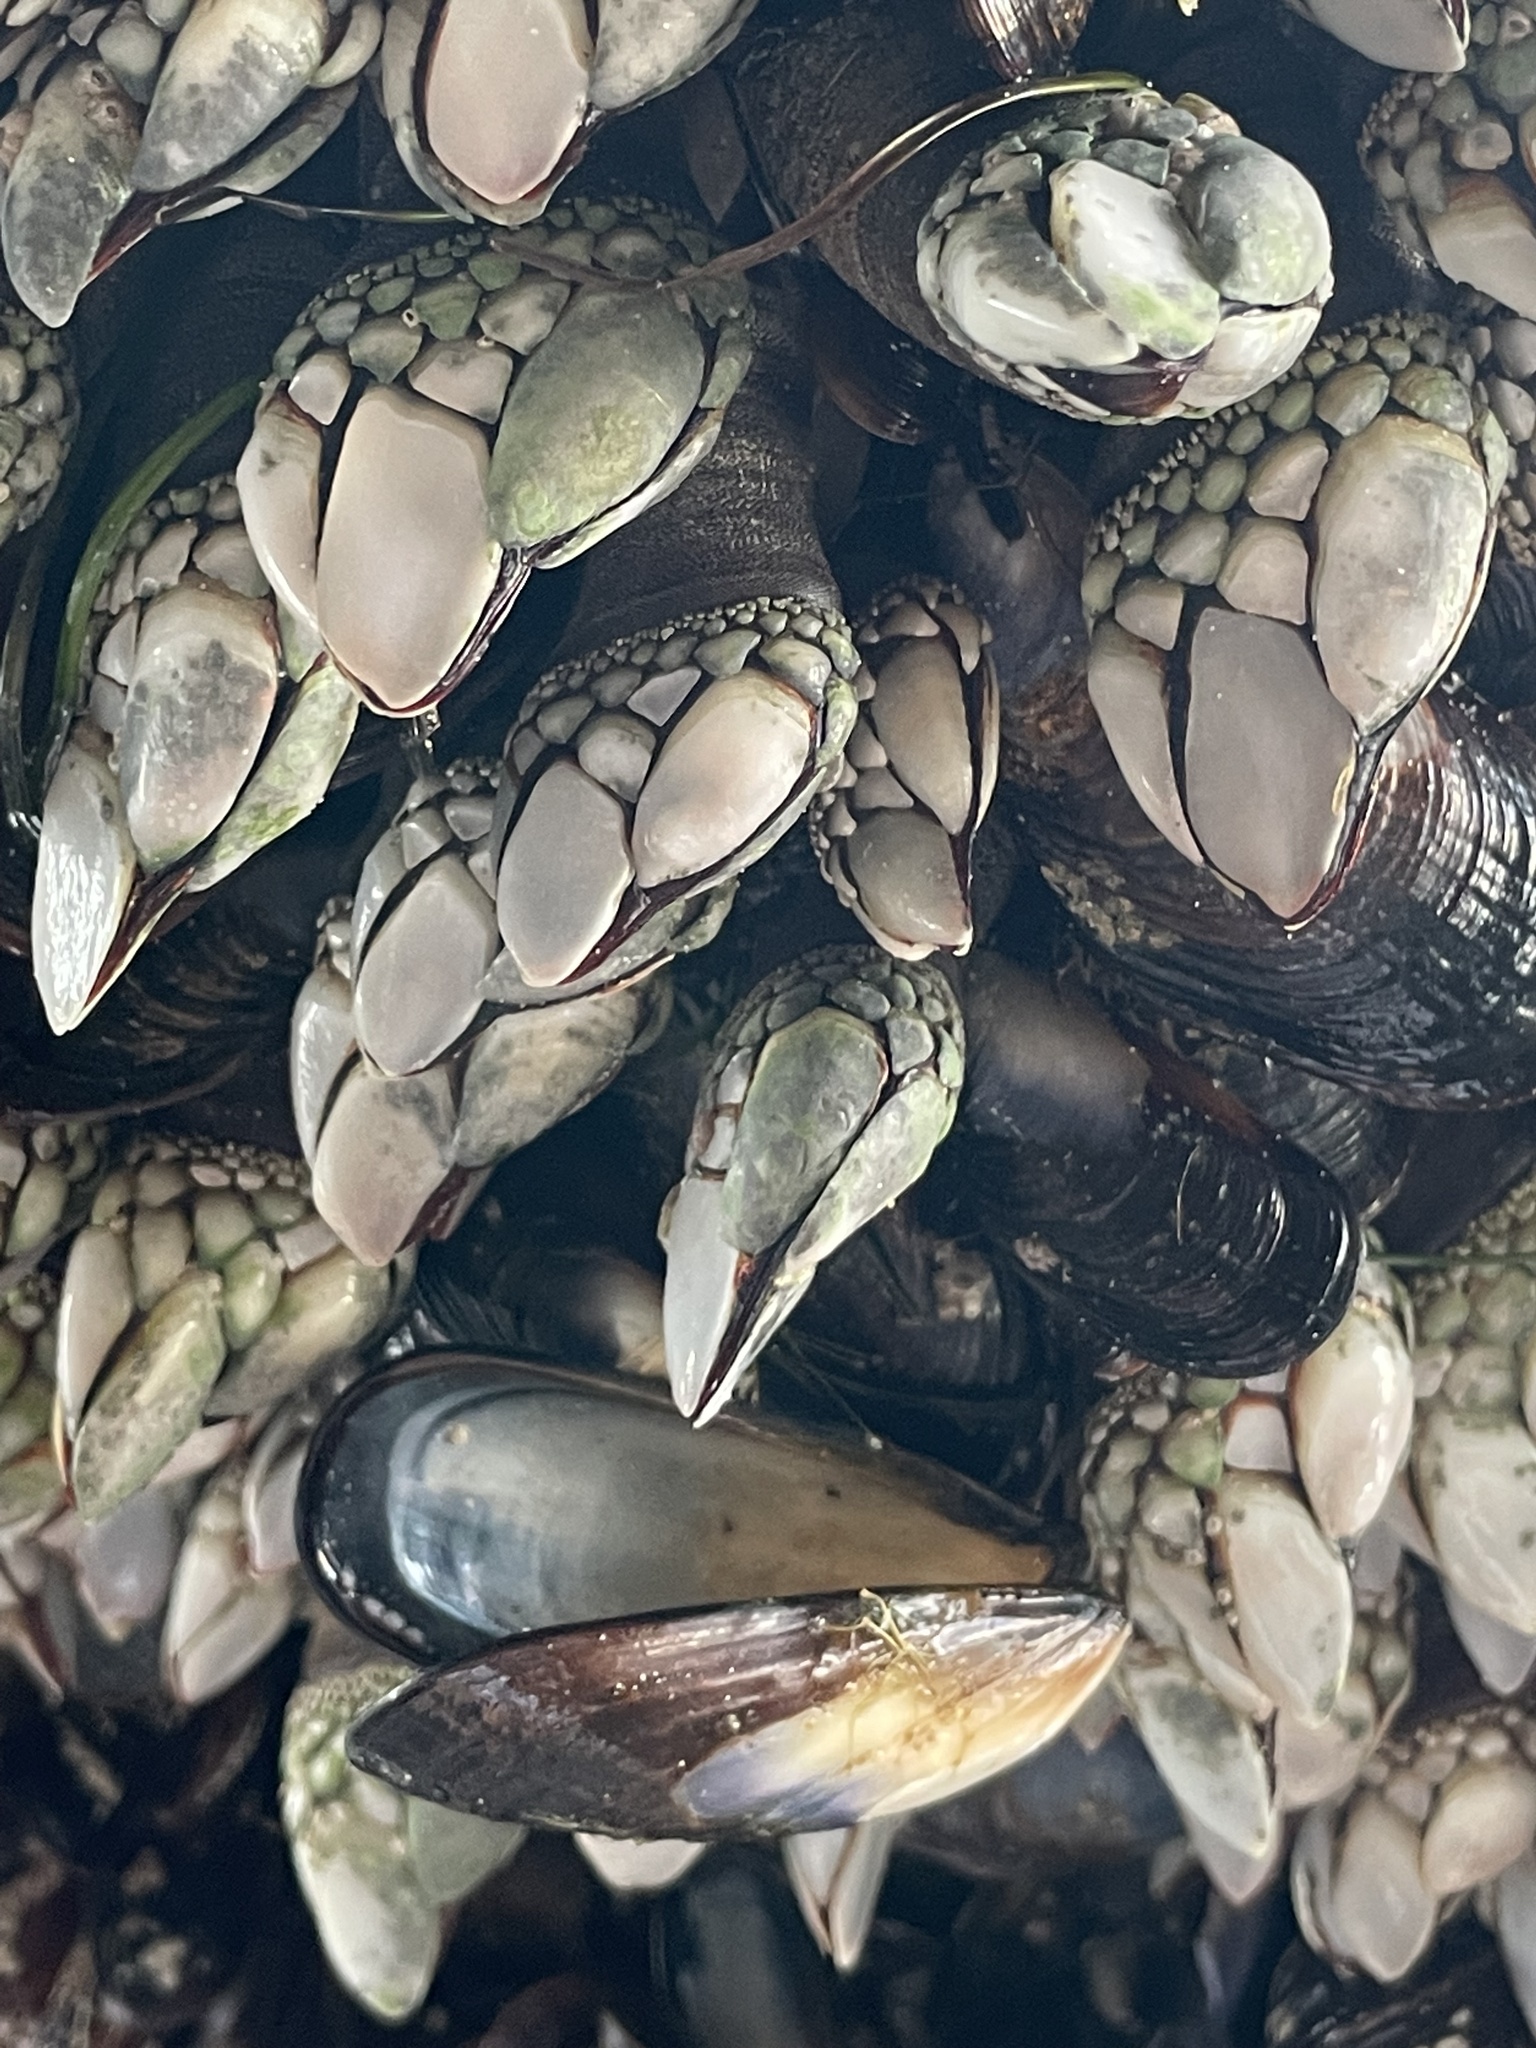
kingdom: Animalia
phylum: Arthropoda
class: Maxillopoda
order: Pedunculata
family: Pollicipedidae
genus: Pollicipes
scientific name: Pollicipes polymerus
